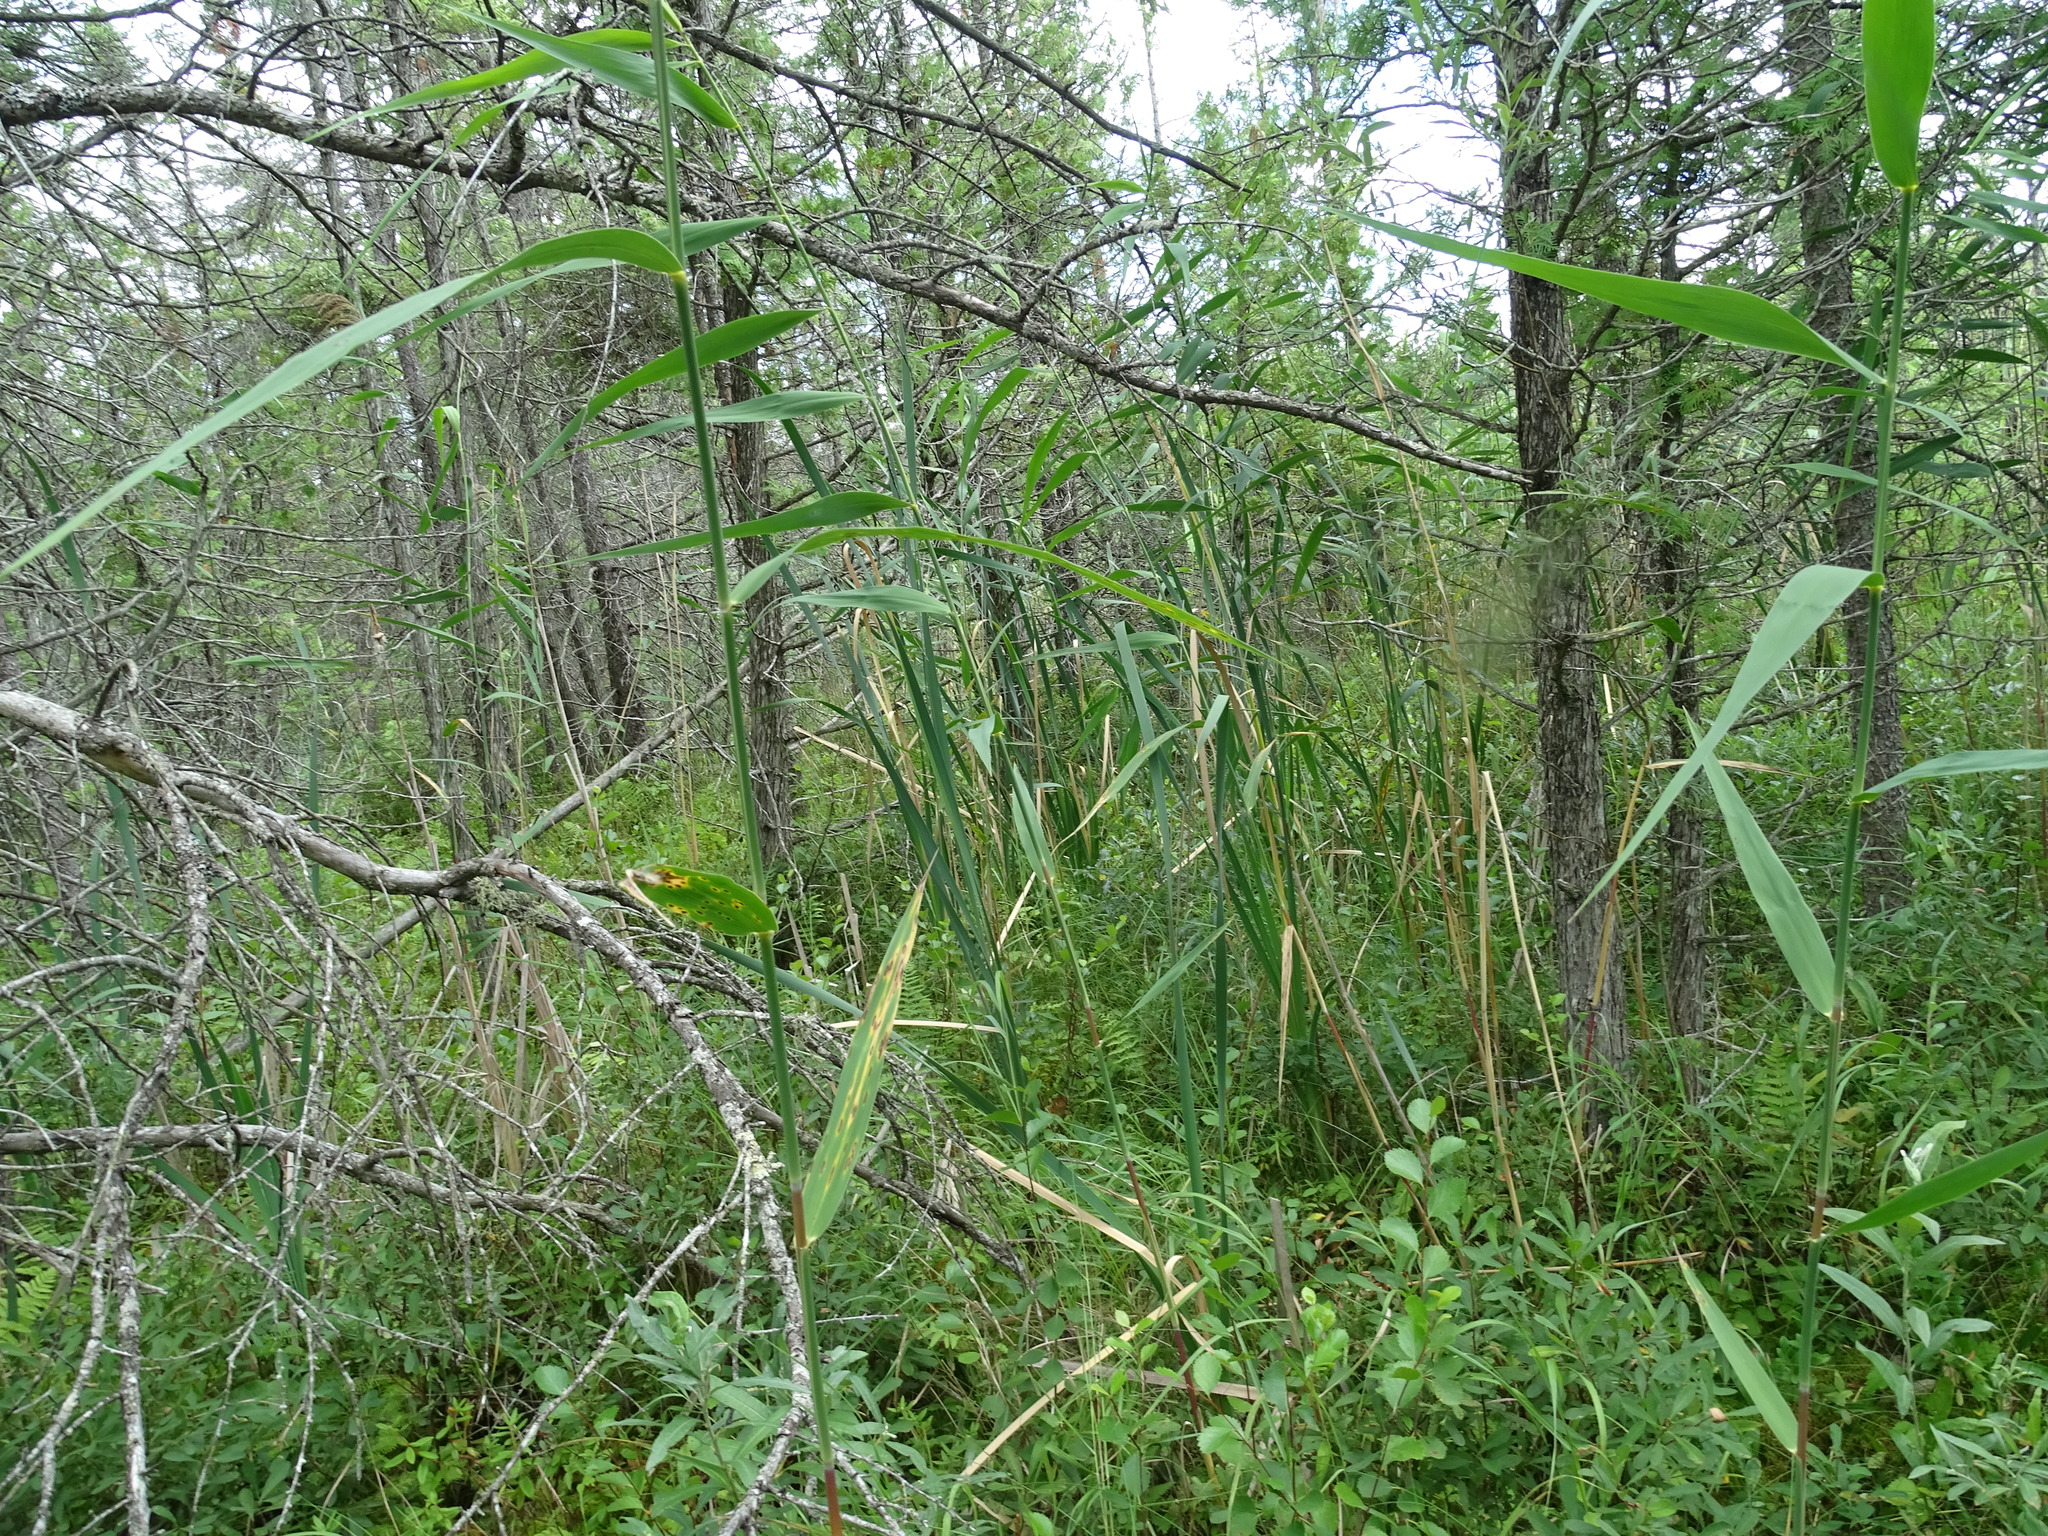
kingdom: Plantae
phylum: Tracheophyta
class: Liliopsida
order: Poales
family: Poaceae
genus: Phragmites
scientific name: Phragmites australis
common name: Common reed
